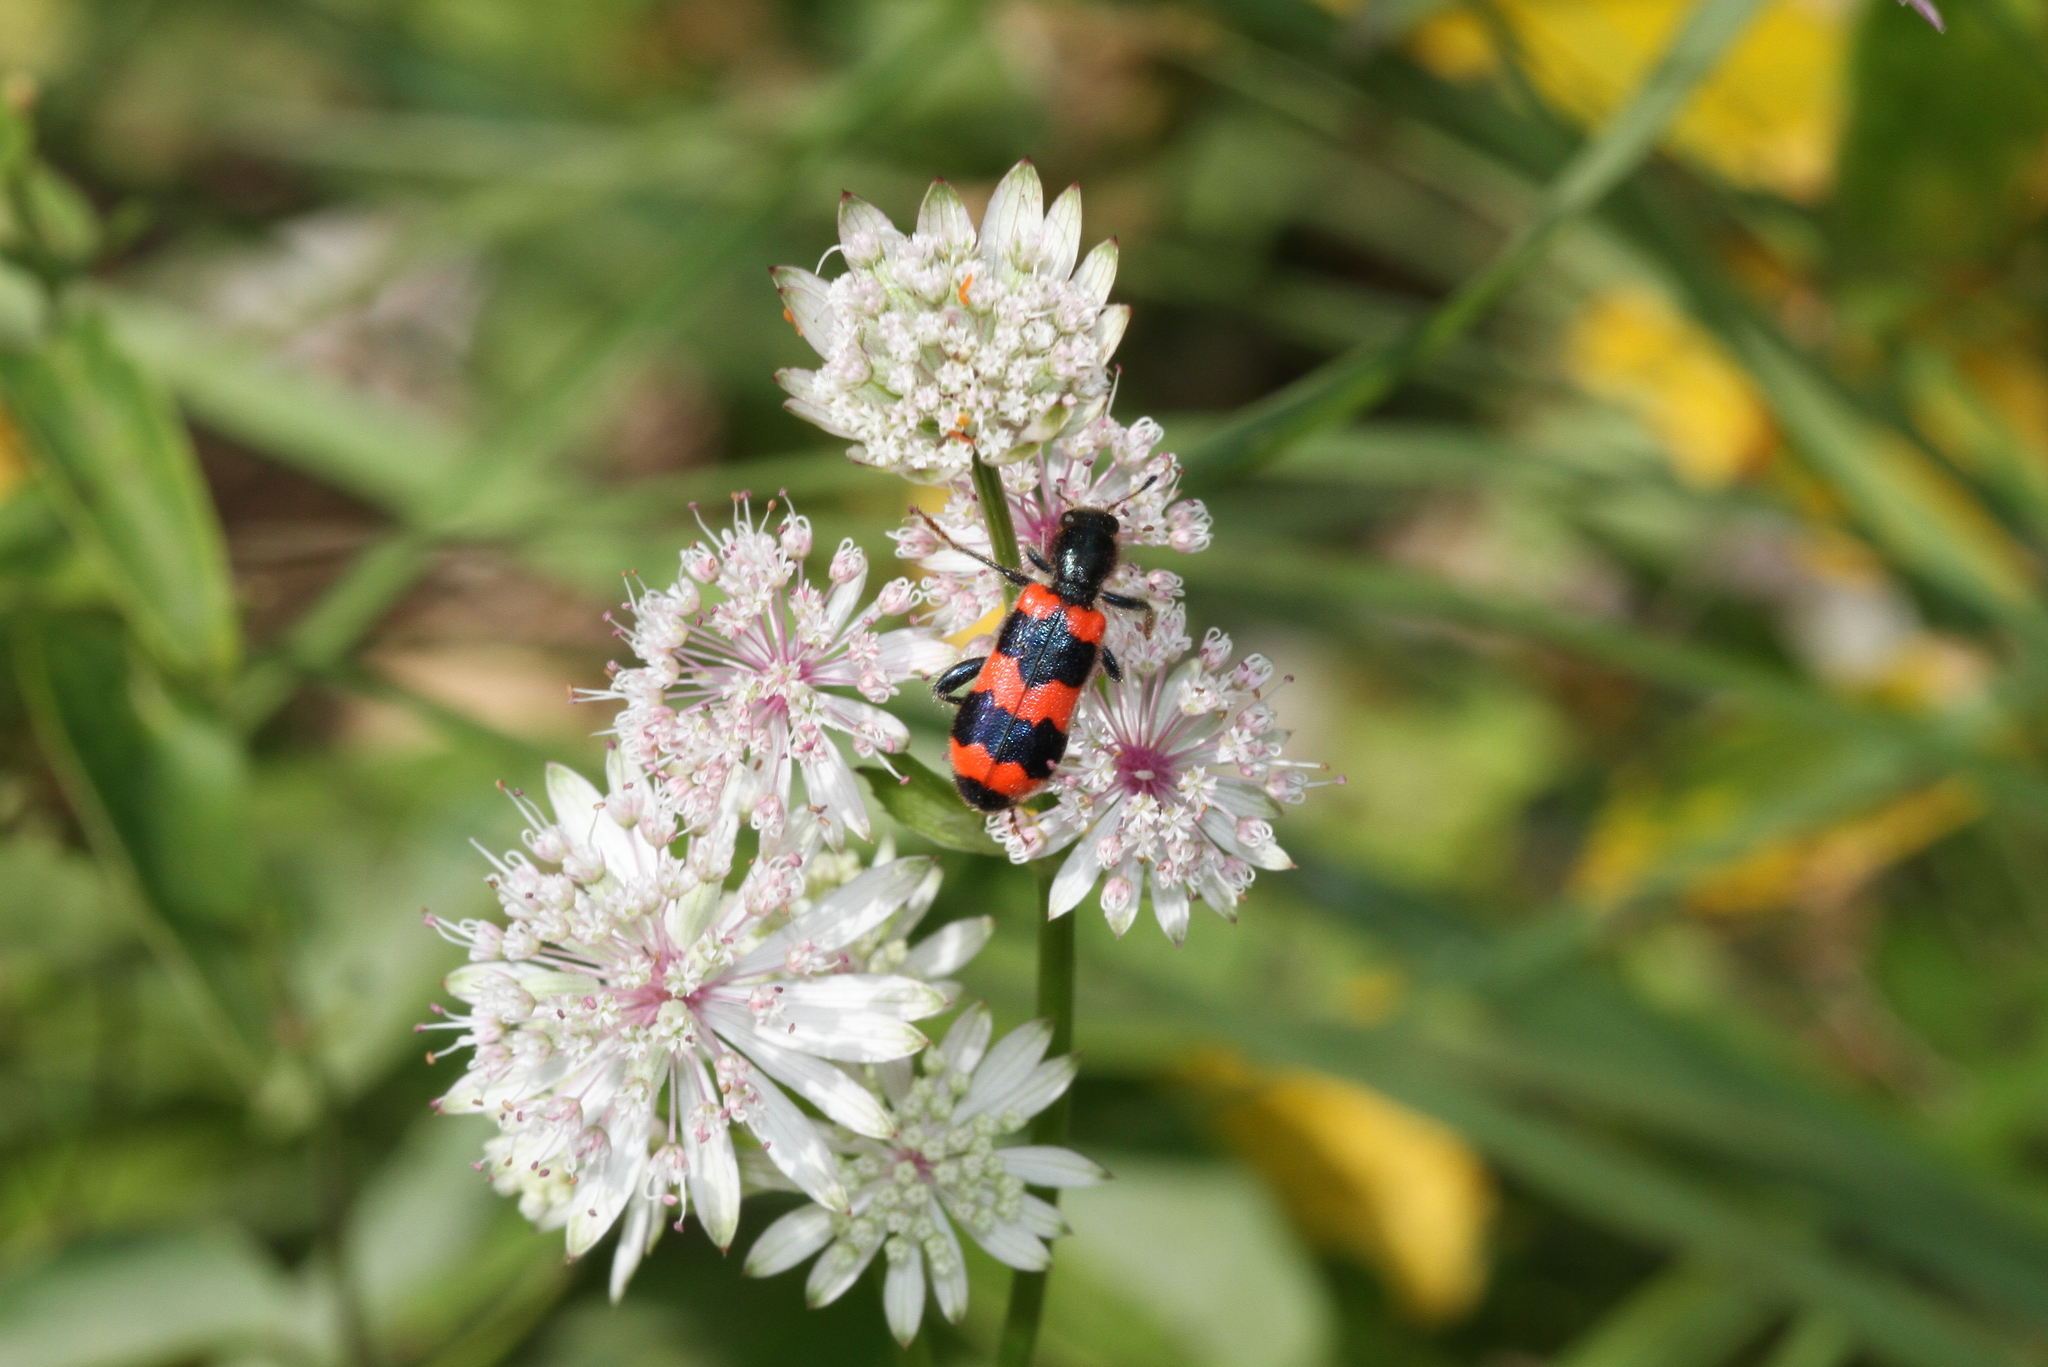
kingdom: Animalia
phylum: Arthropoda
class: Insecta
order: Coleoptera
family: Cleridae
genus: Trichodes
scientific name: Trichodes apiarius
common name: Bee-eating beetle
